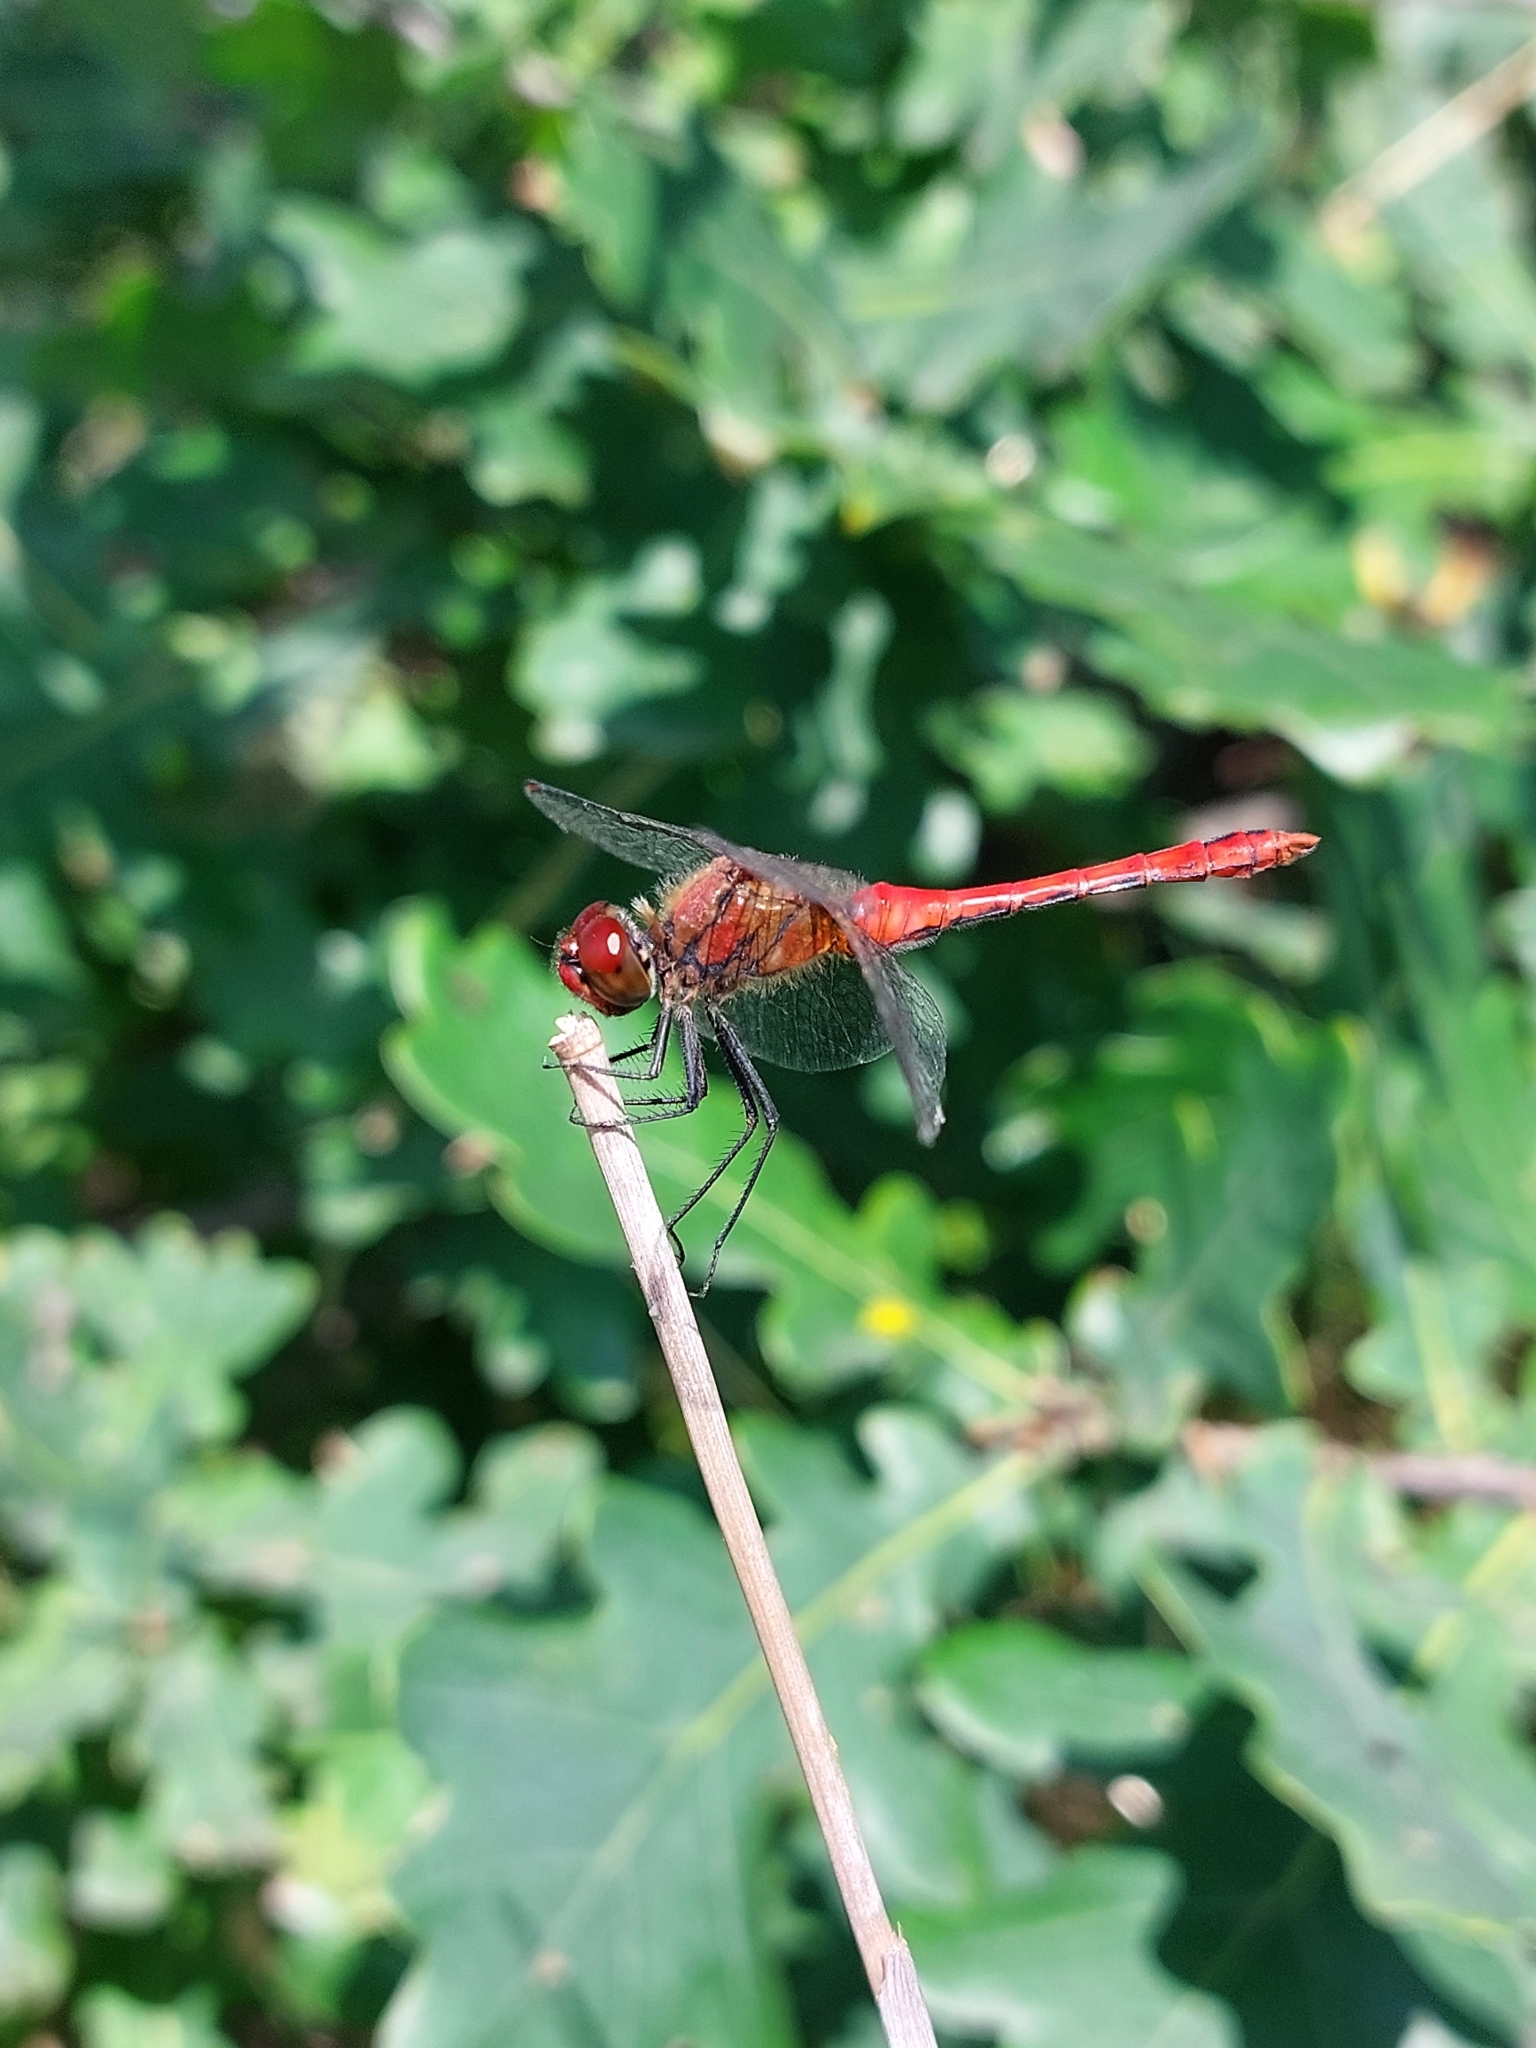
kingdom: Animalia
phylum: Arthropoda
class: Insecta
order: Odonata
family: Libellulidae
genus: Sympetrum
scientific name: Sympetrum sanguineum
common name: Ruddy darter
